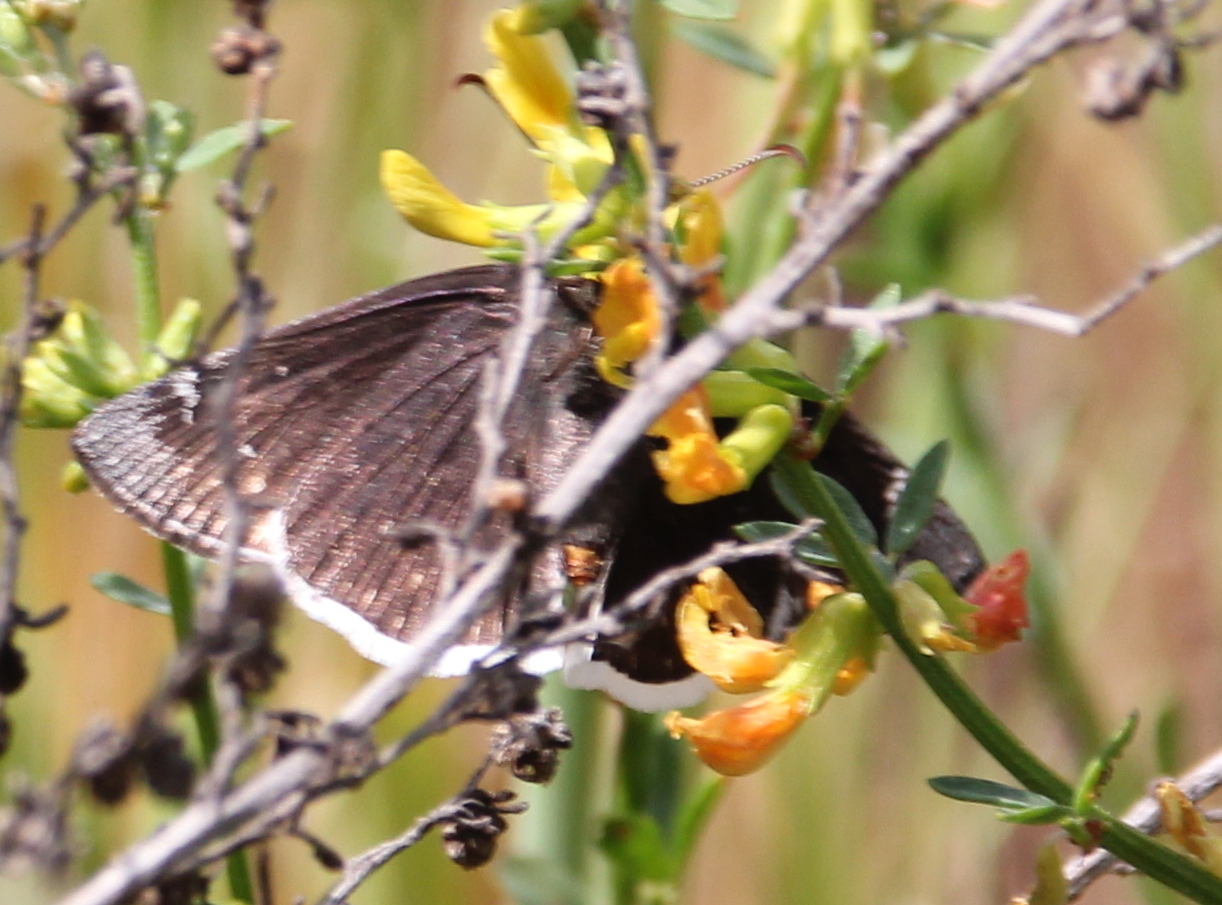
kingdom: Animalia
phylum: Arthropoda
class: Insecta
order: Lepidoptera
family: Hesperiidae
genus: Erynnis
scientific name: Erynnis funeralis
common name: Funereal duskywing
